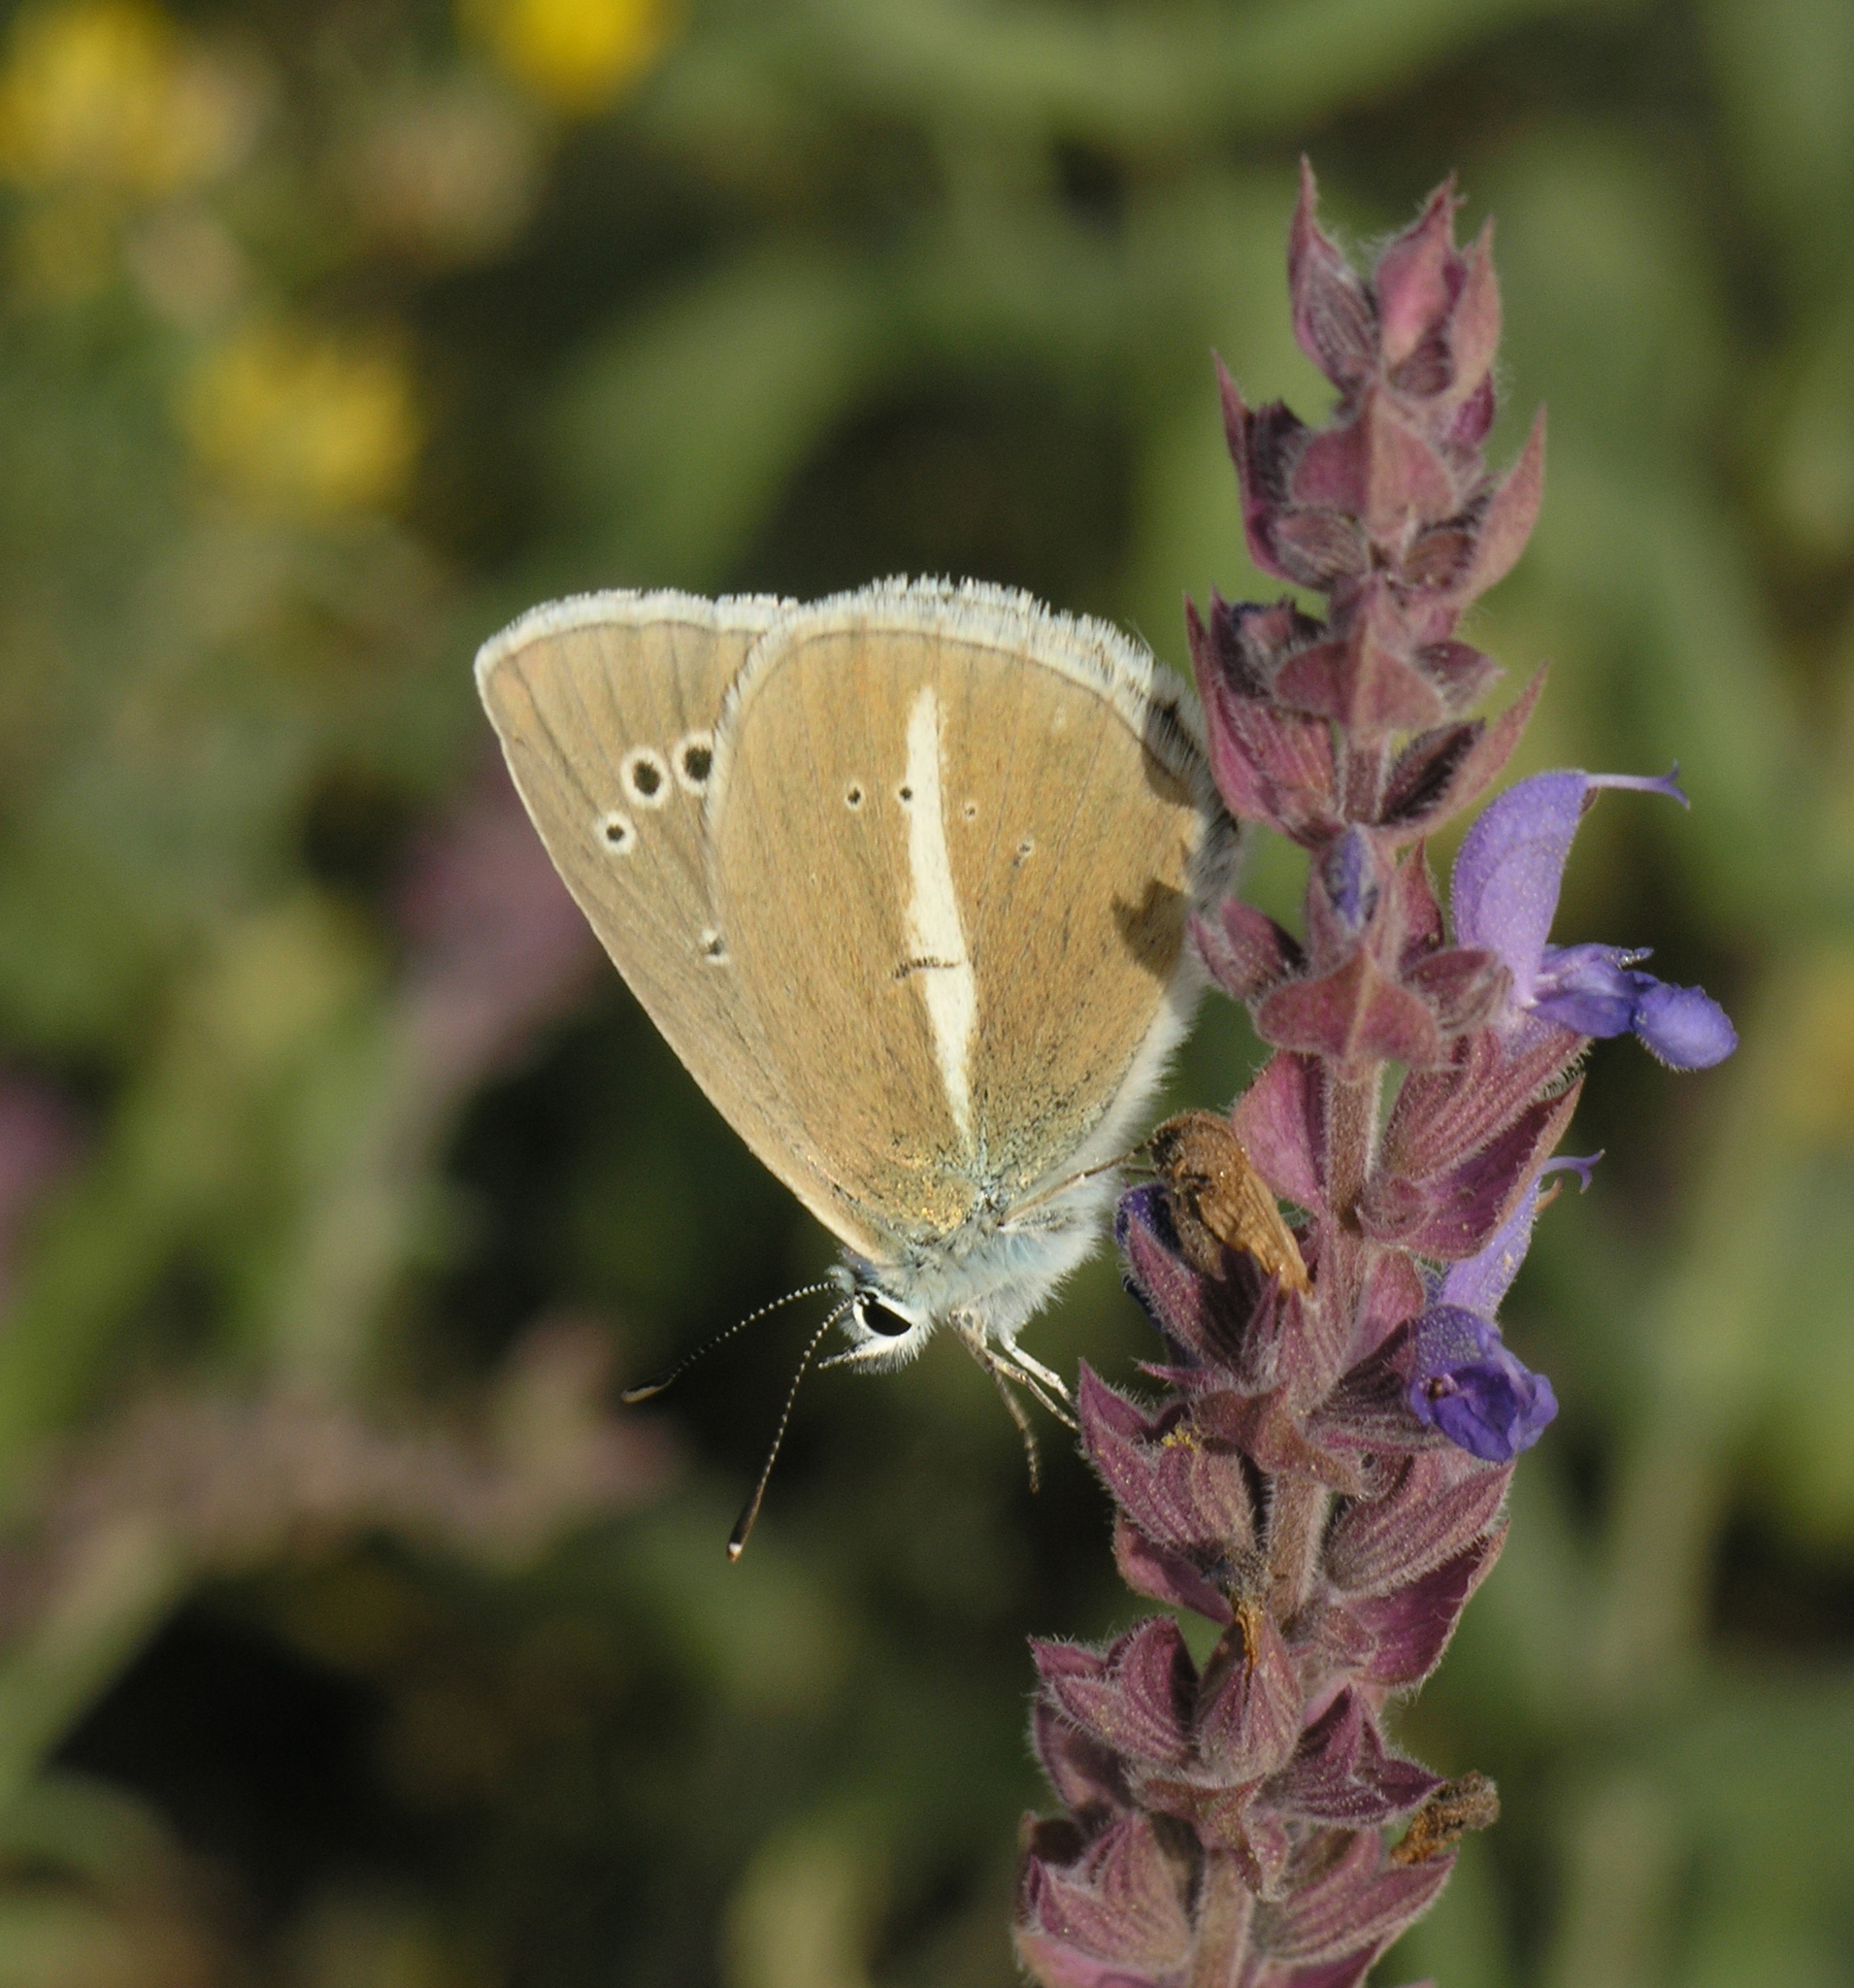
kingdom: Animalia
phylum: Arthropoda
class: Insecta
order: Lepidoptera
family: Lycaenidae
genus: Agrodiaetus
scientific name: Agrodiaetus damon
